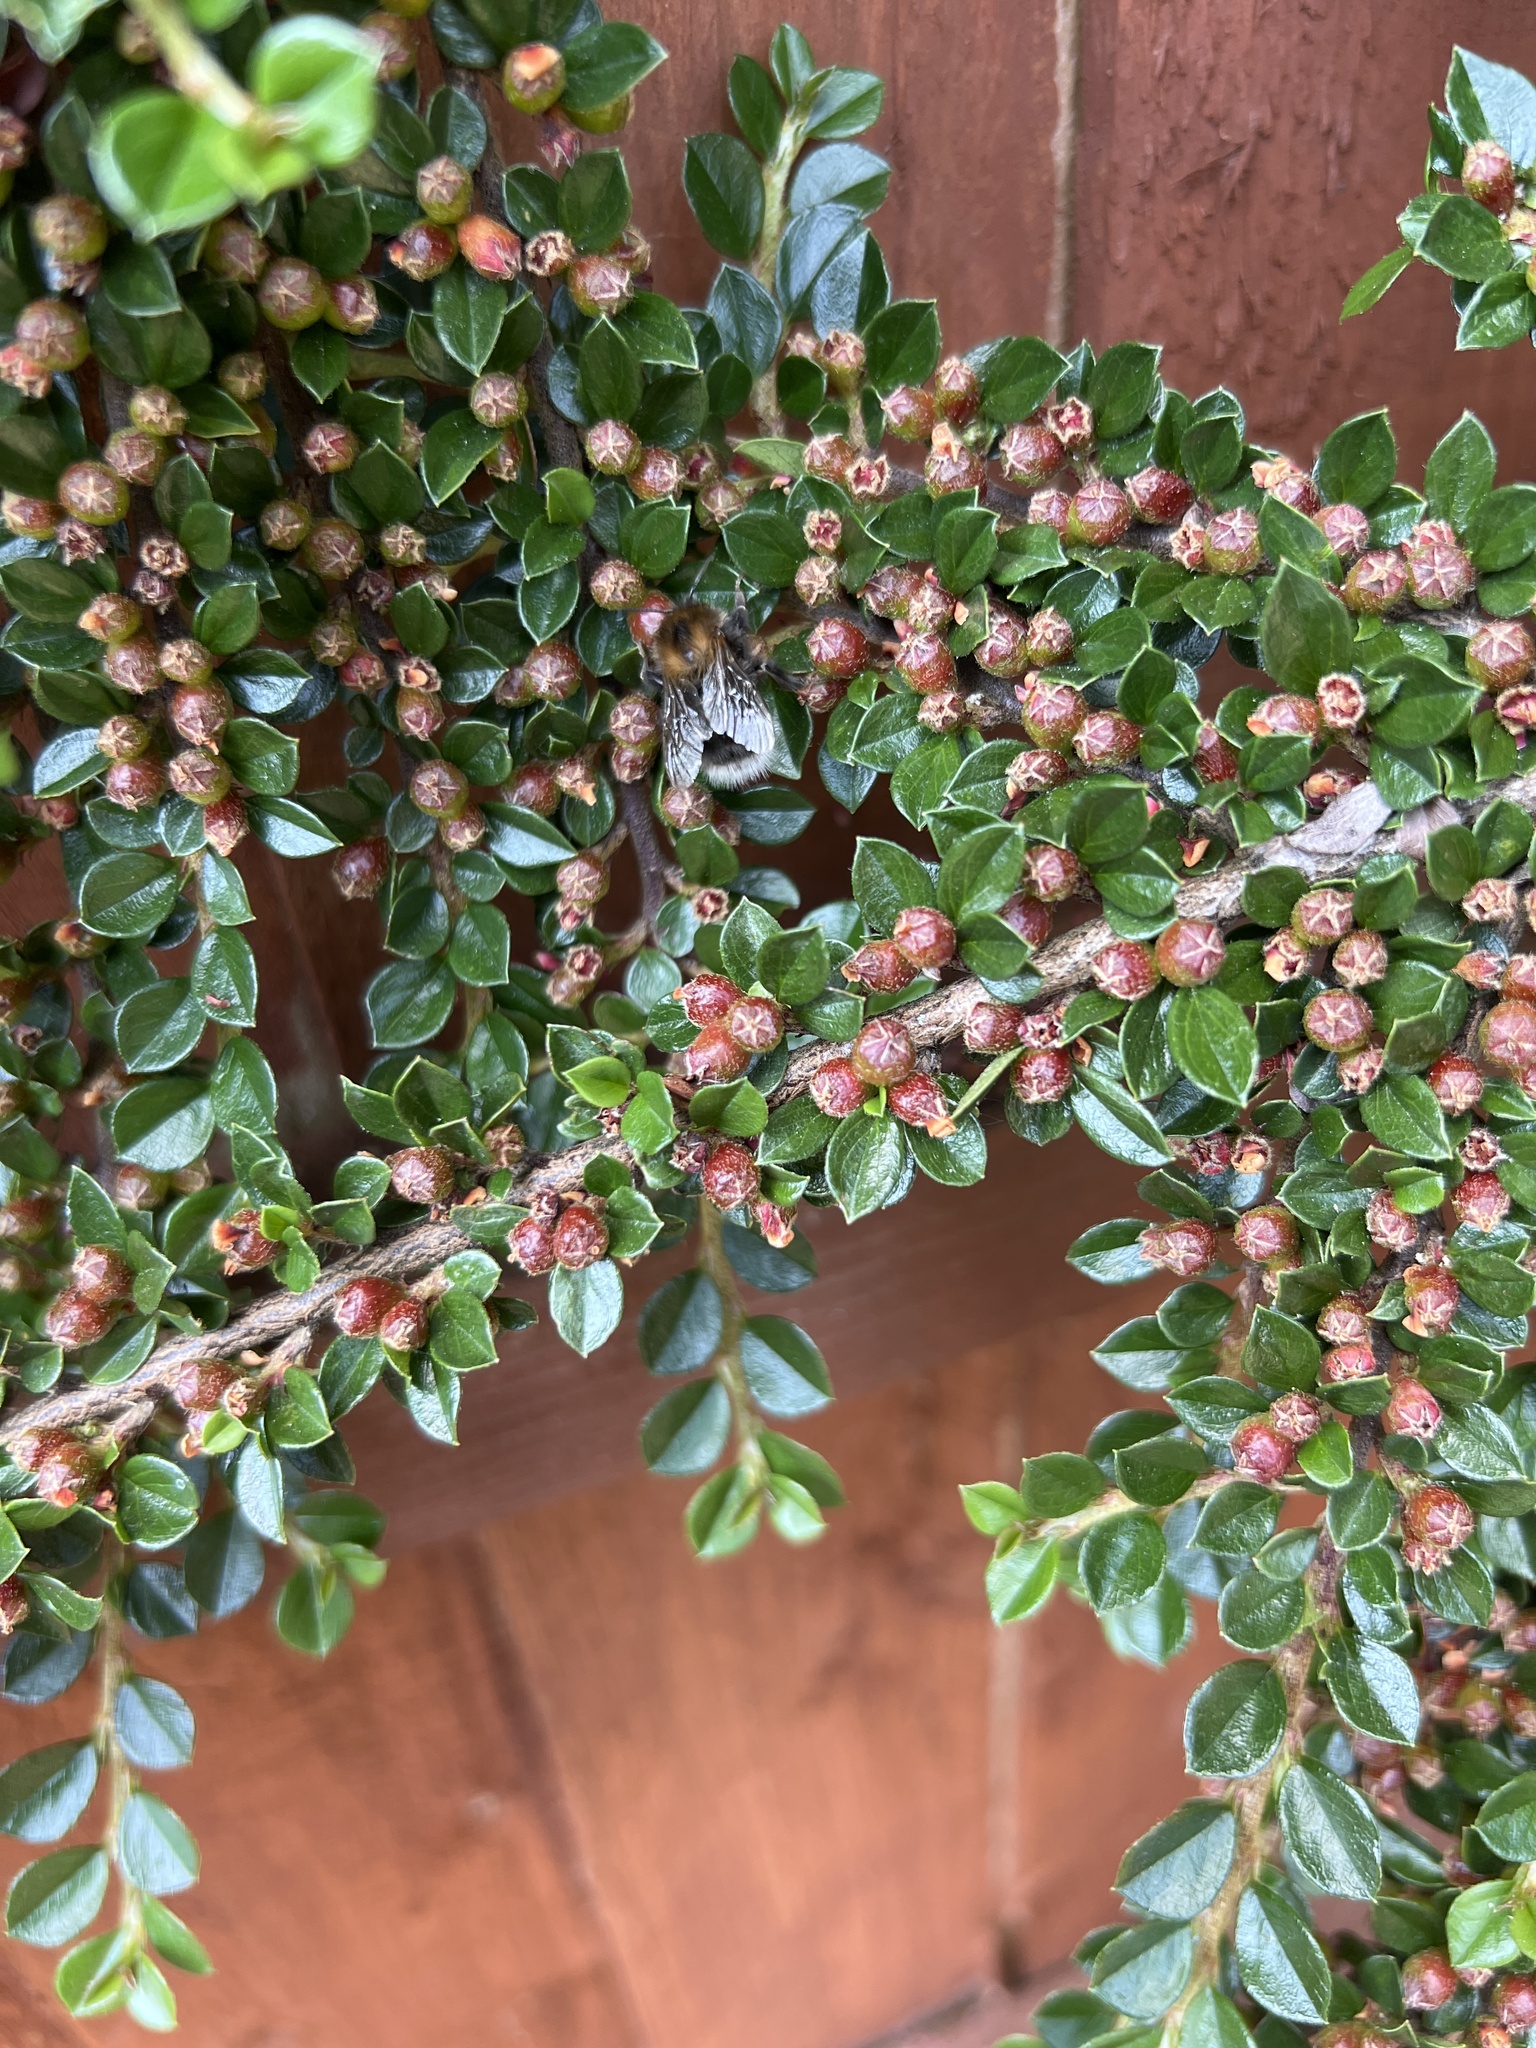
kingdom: Animalia
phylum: Arthropoda
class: Insecta
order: Hymenoptera
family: Apidae
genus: Bombus
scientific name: Bombus hypnorum
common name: New garden bumblebee
